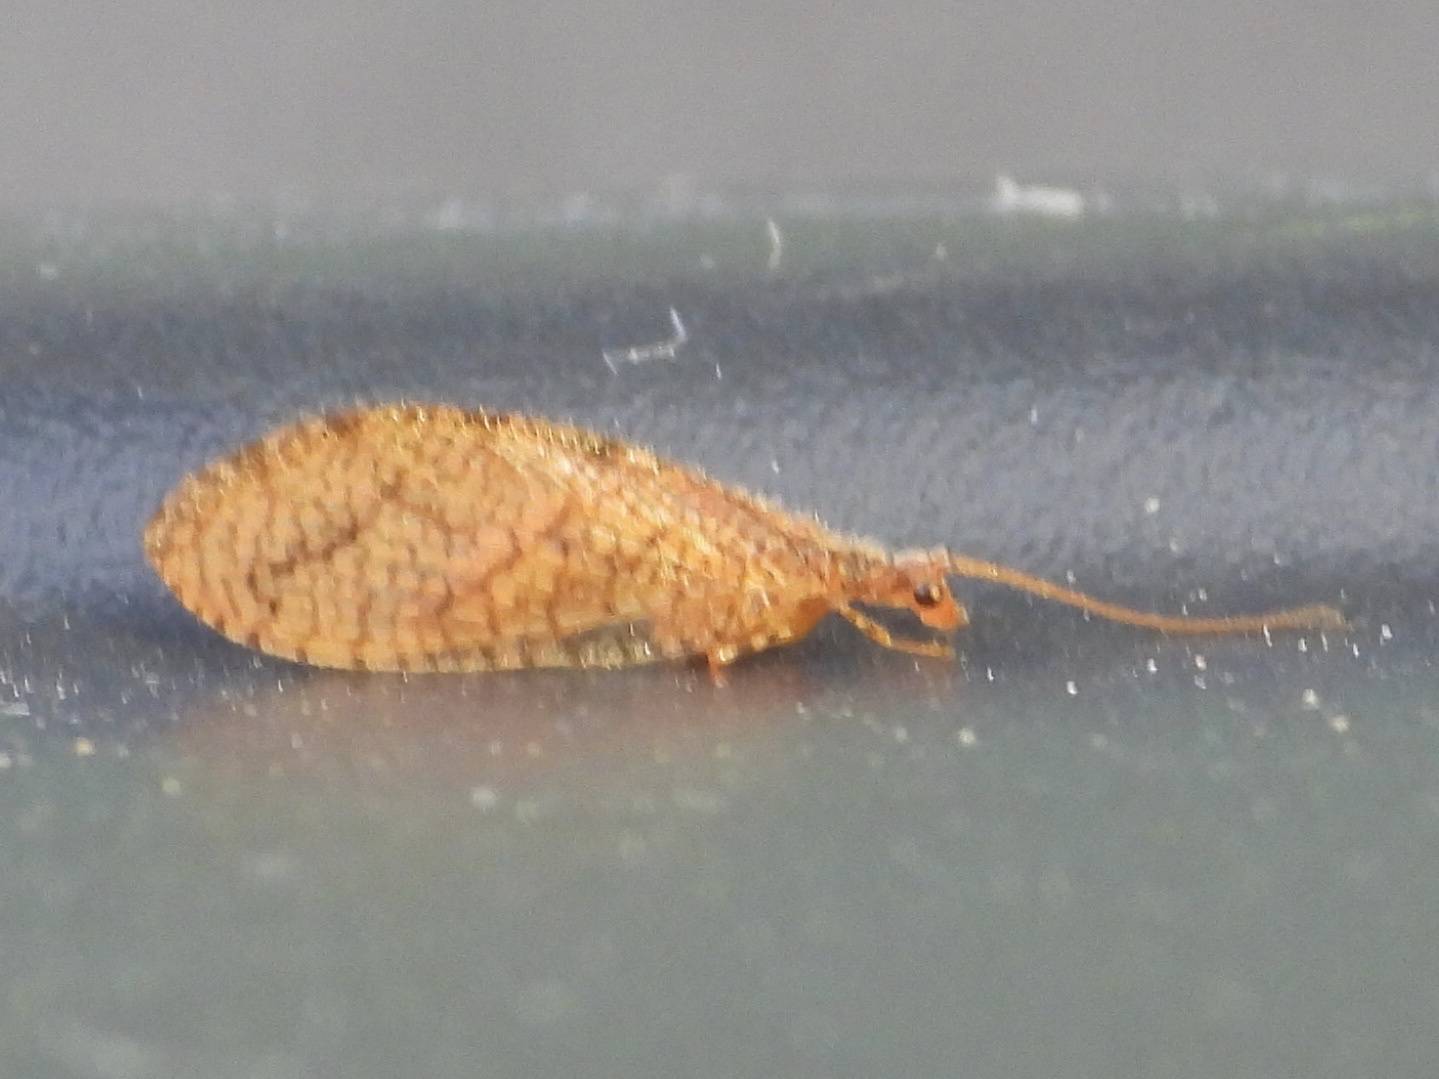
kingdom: Animalia
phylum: Arthropoda
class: Insecta
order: Neuroptera
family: Hemerobiidae
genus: Micromus
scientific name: Micromus posticus
